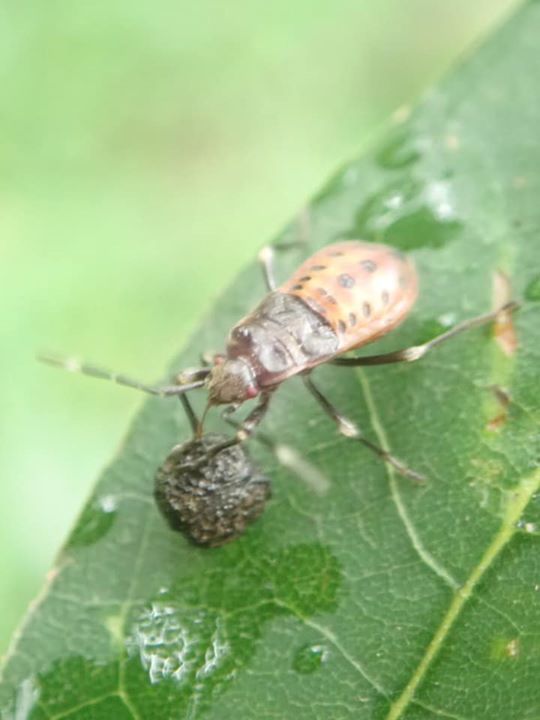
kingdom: Animalia
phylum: Arthropoda
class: Insecta
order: Hemiptera
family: Cicadellidae
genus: Tartessus
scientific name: Tartessus ferrugineus
